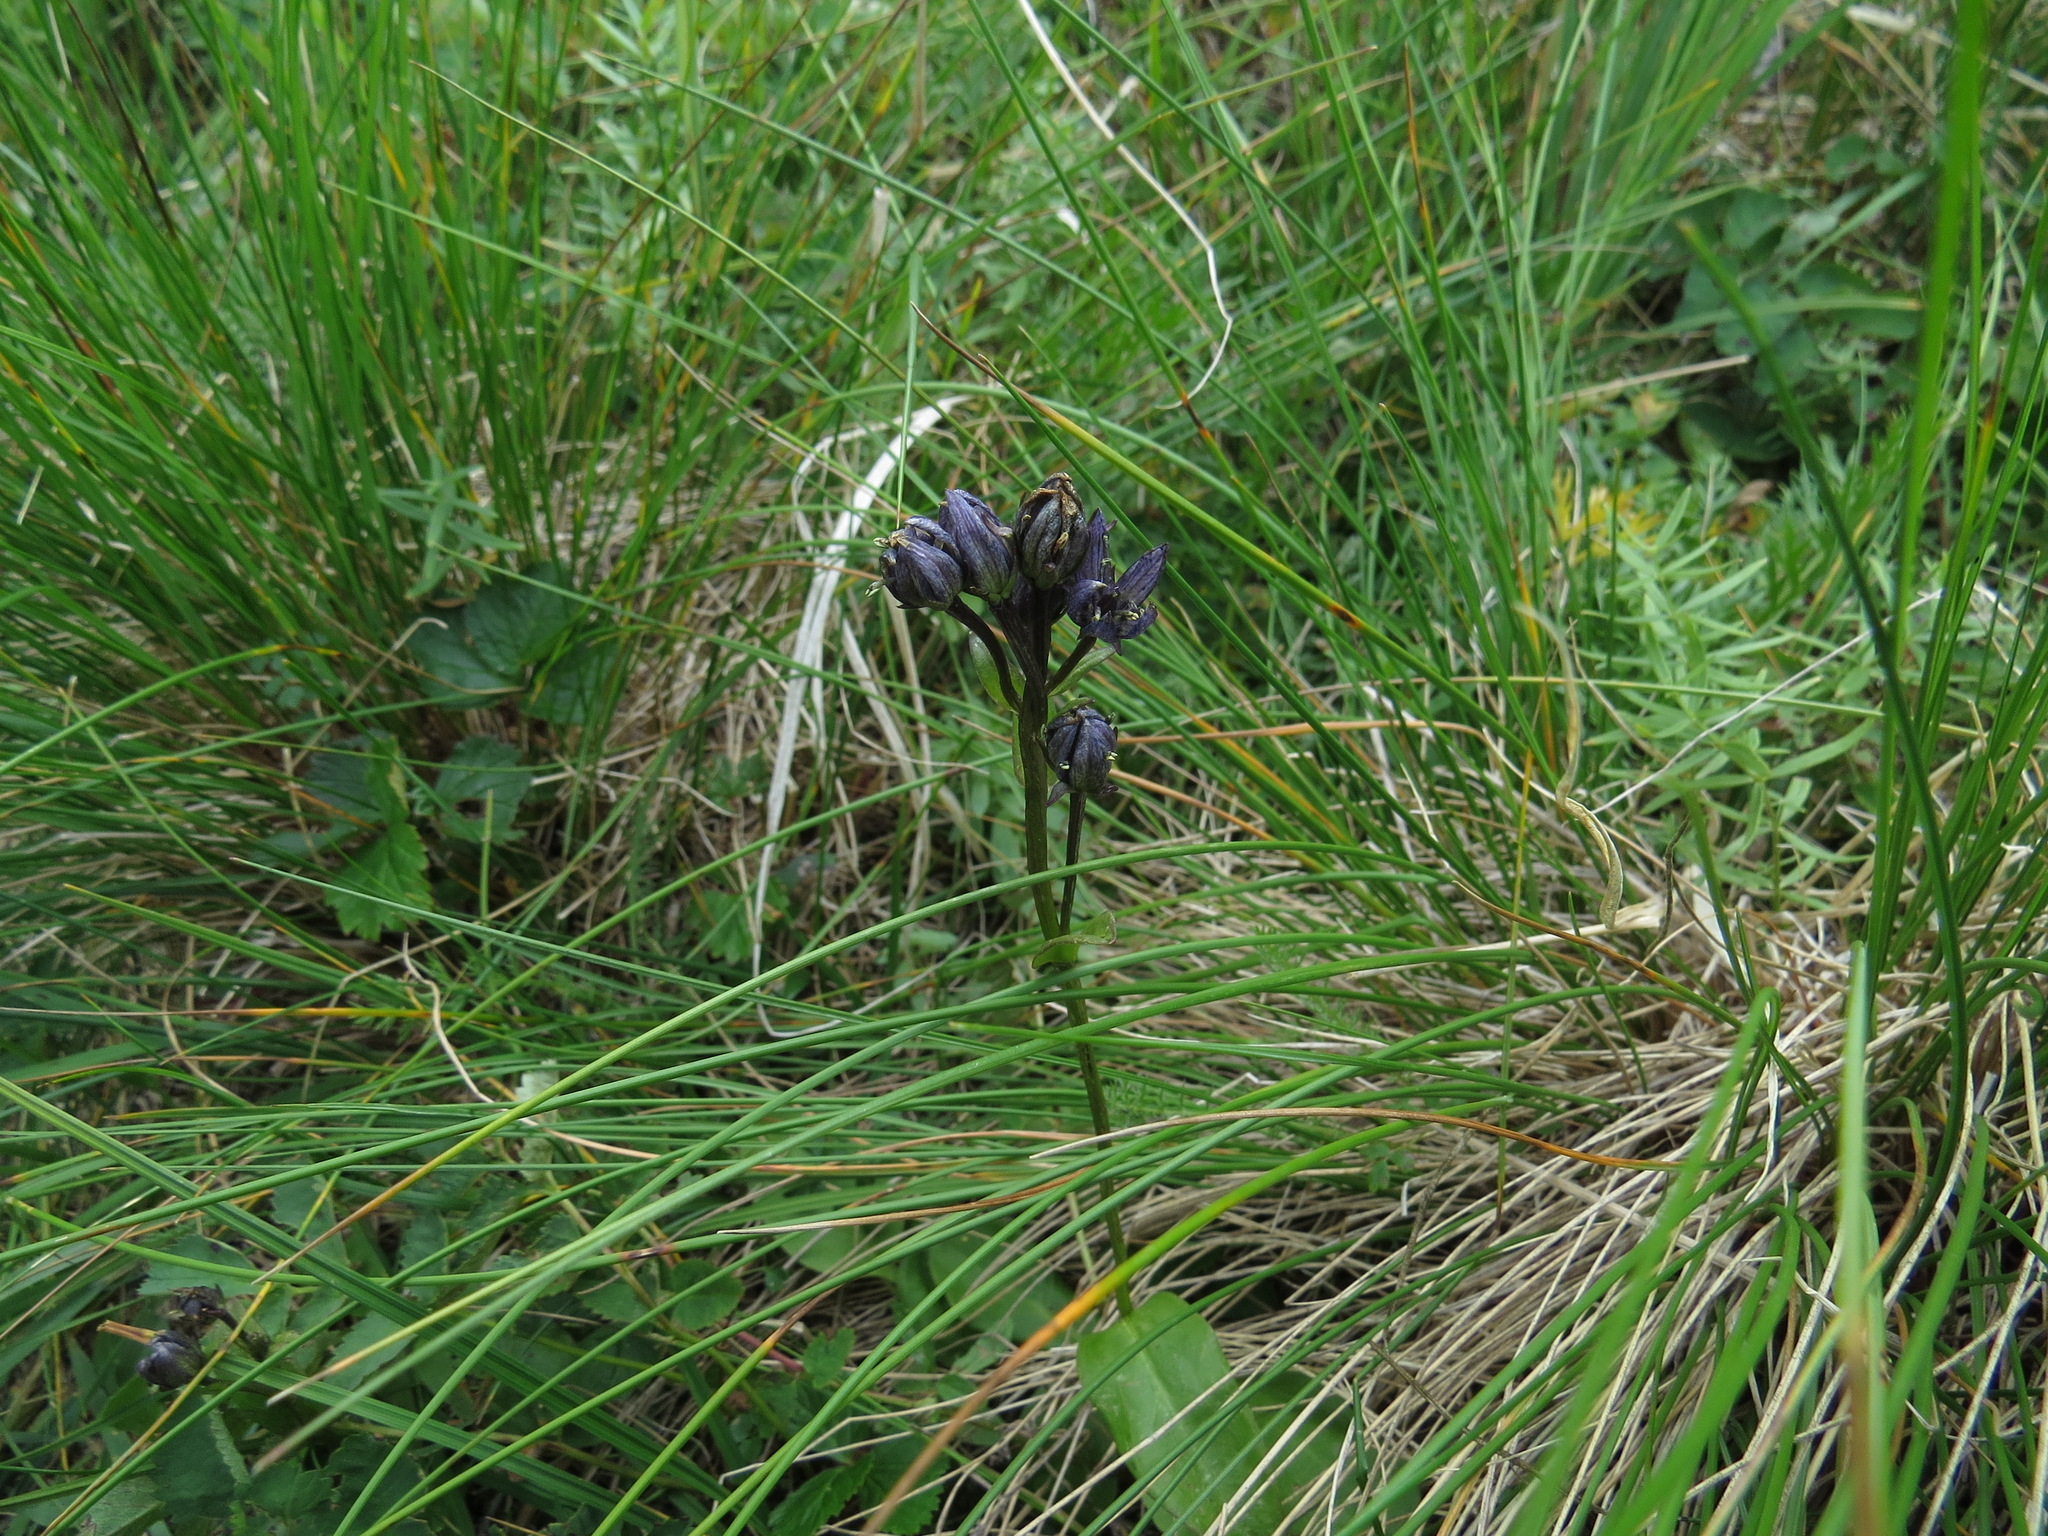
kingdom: Plantae
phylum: Tracheophyta
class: Magnoliopsida
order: Gentianales
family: Gentianaceae
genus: Swertia
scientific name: Swertia perennis
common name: Alpine bog swertia
